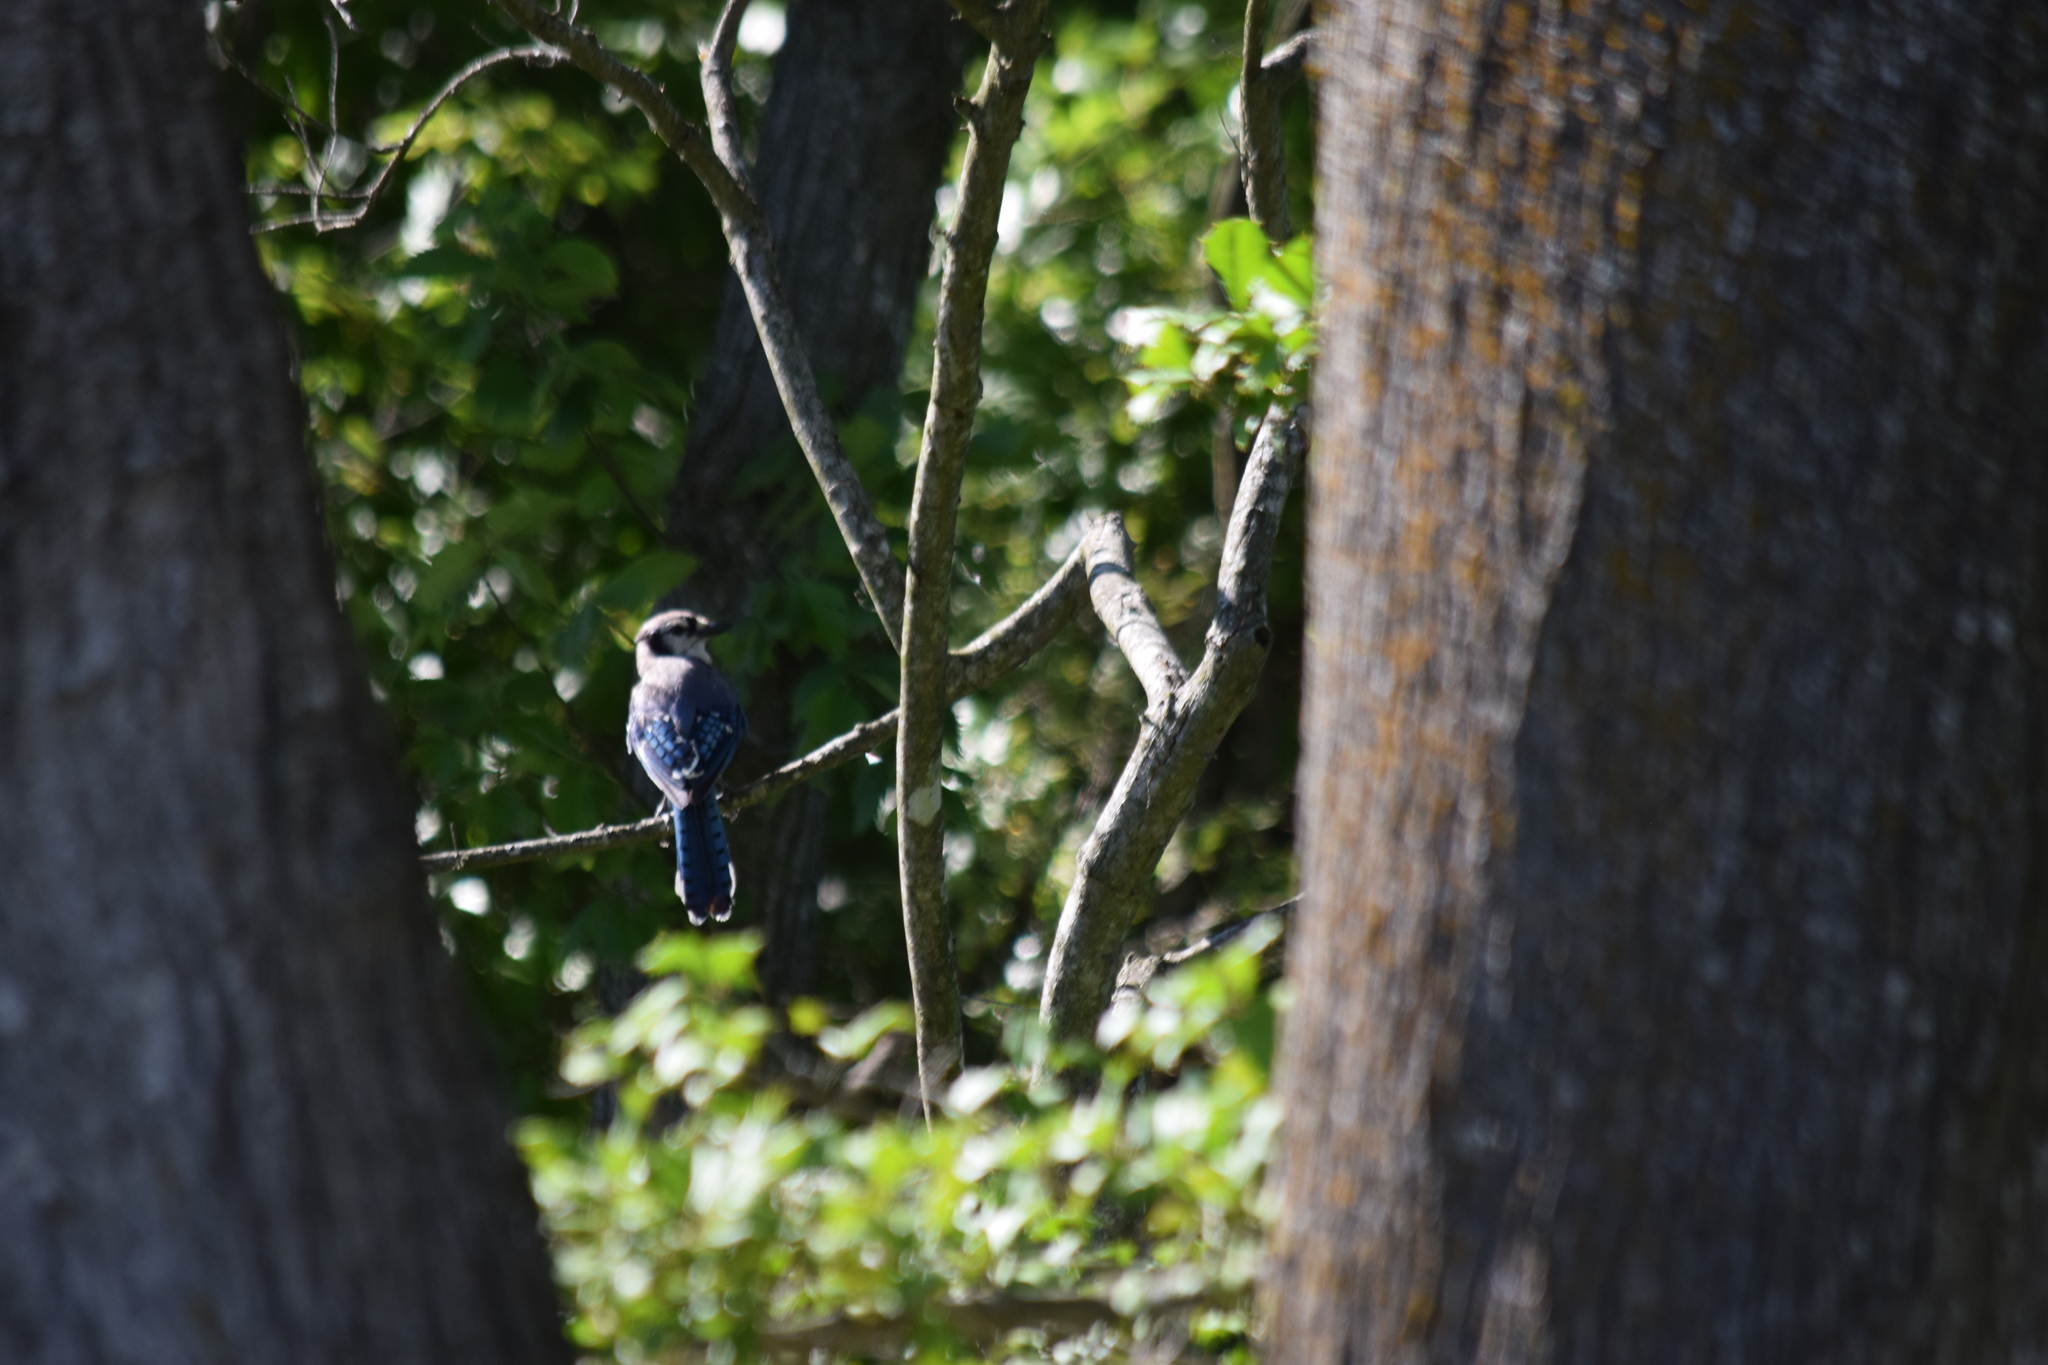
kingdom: Animalia
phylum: Chordata
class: Aves
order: Passeriformes
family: Corvidae
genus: Cyanocitta
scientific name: Cyanocitta cristata
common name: Blue jay
